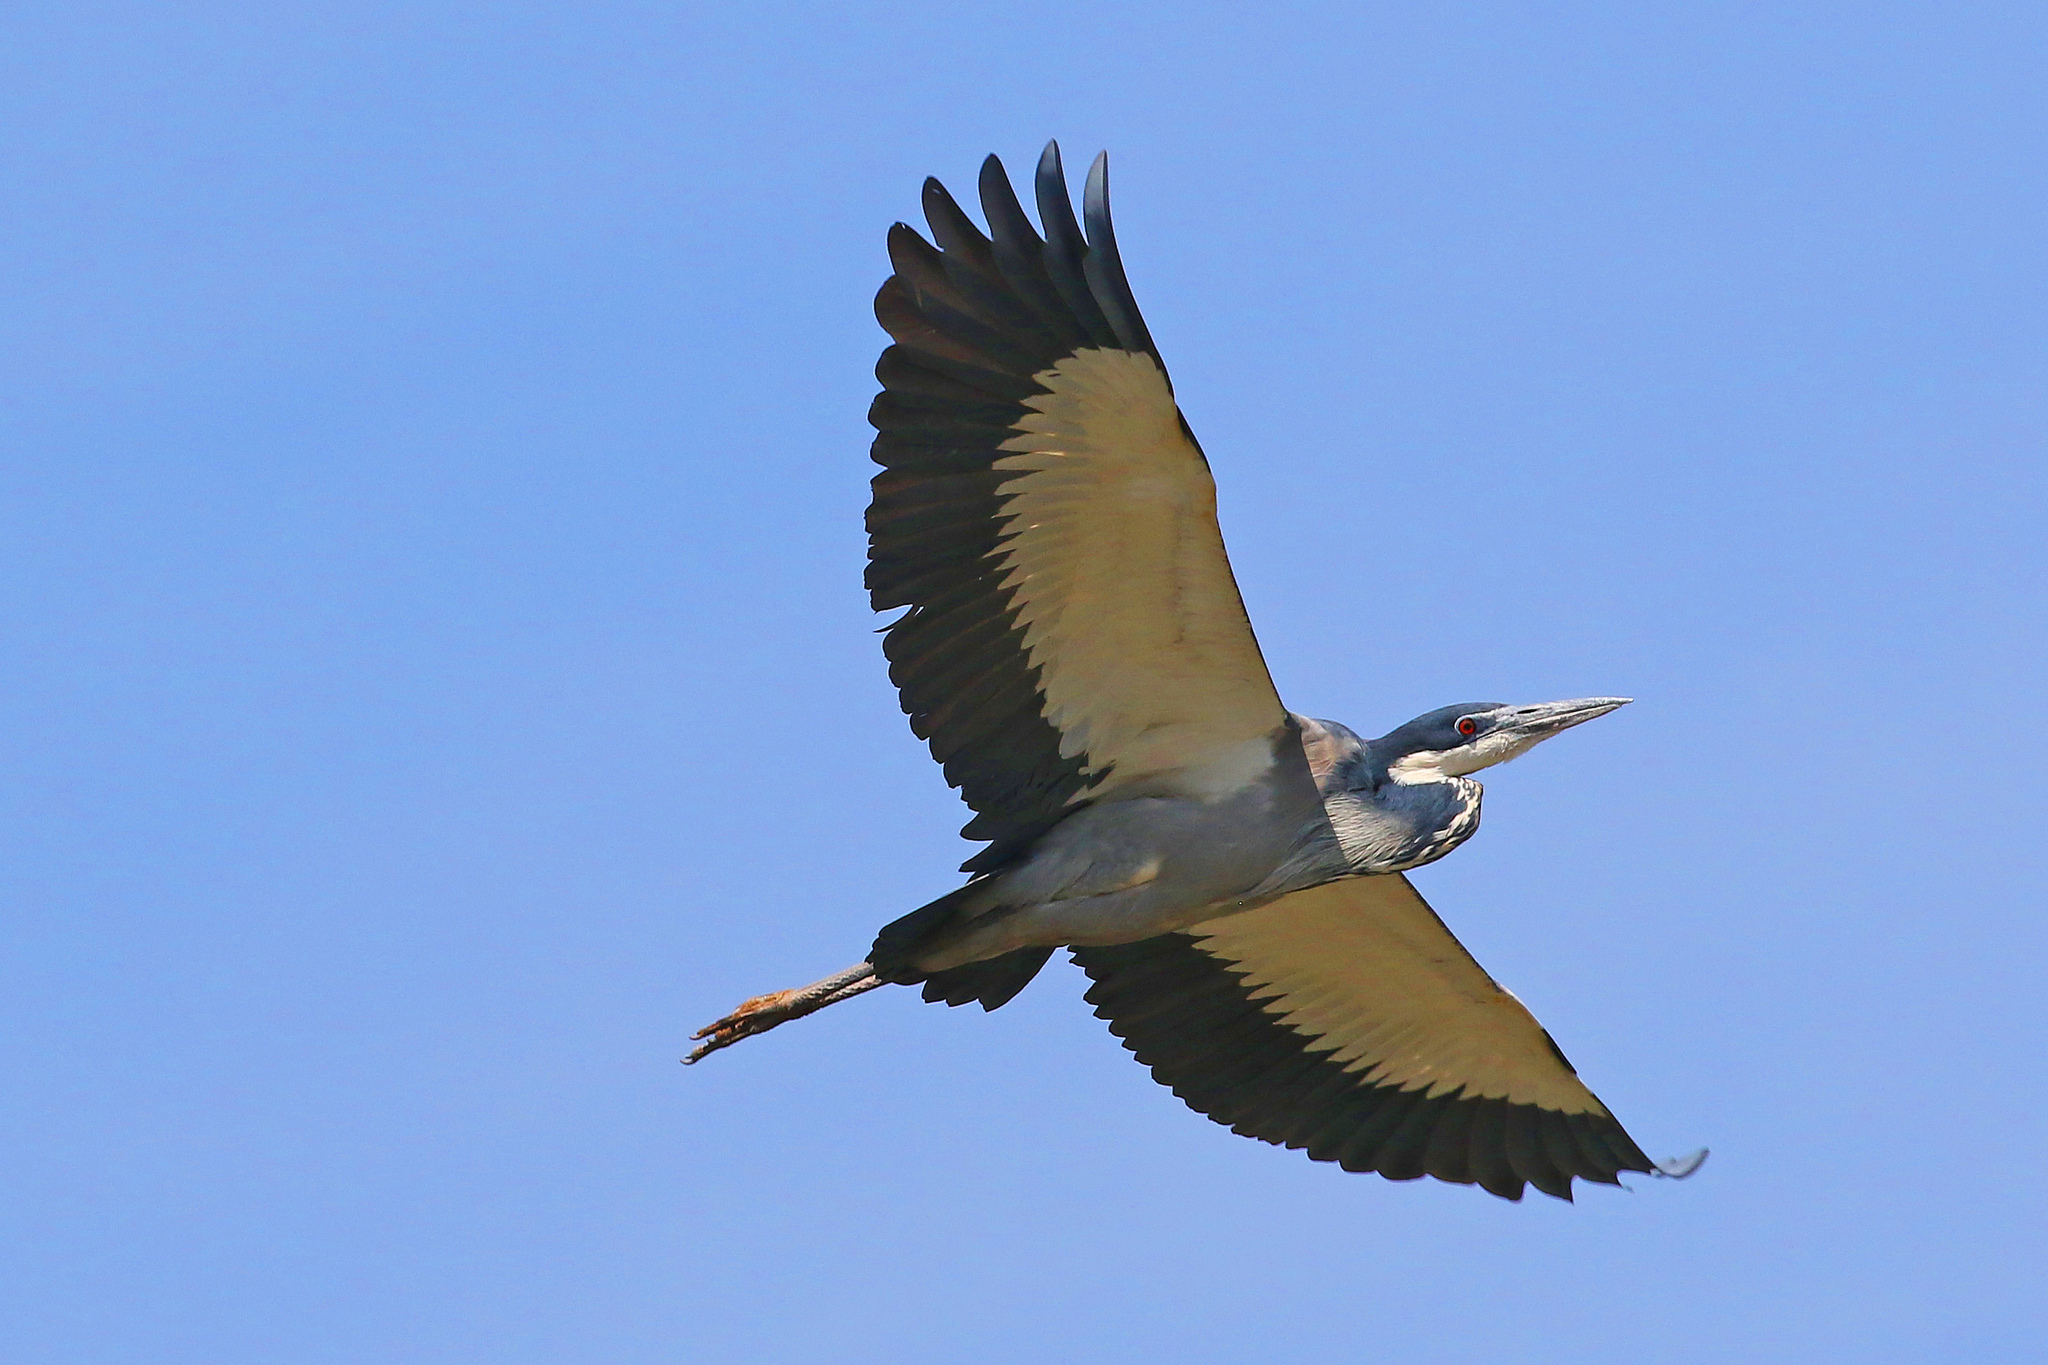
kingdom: Animalia
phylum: Chordata
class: Aves
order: Pelecaniformes
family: Ardeidae
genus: Ardea
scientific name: Ardea melanocephala
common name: Black-headed heron
